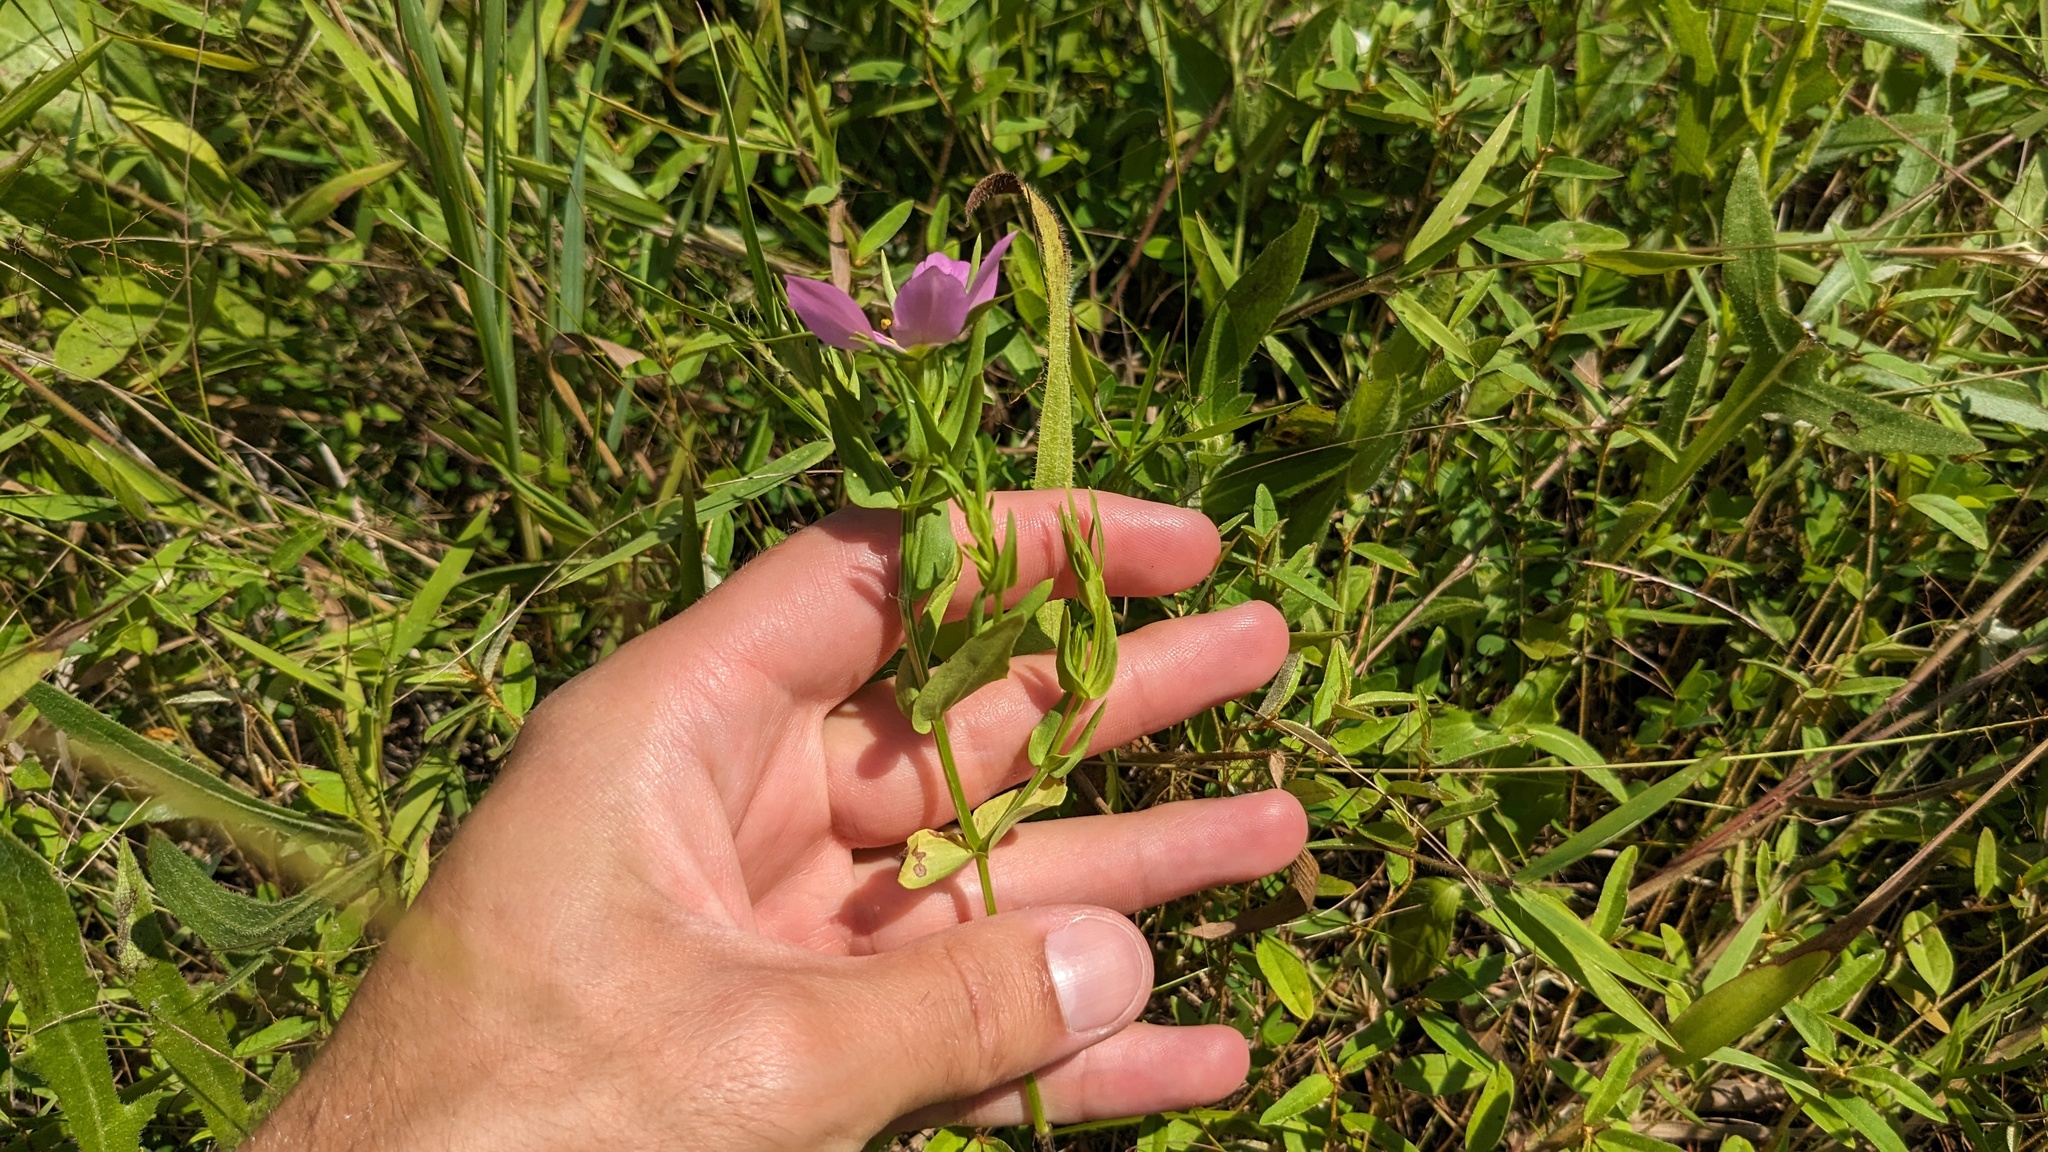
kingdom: Plantae
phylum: Tracheophyta
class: Magnoliopsida
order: Gentianales
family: Gentianaceae
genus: Sabatia
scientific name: Sabatia campestris
